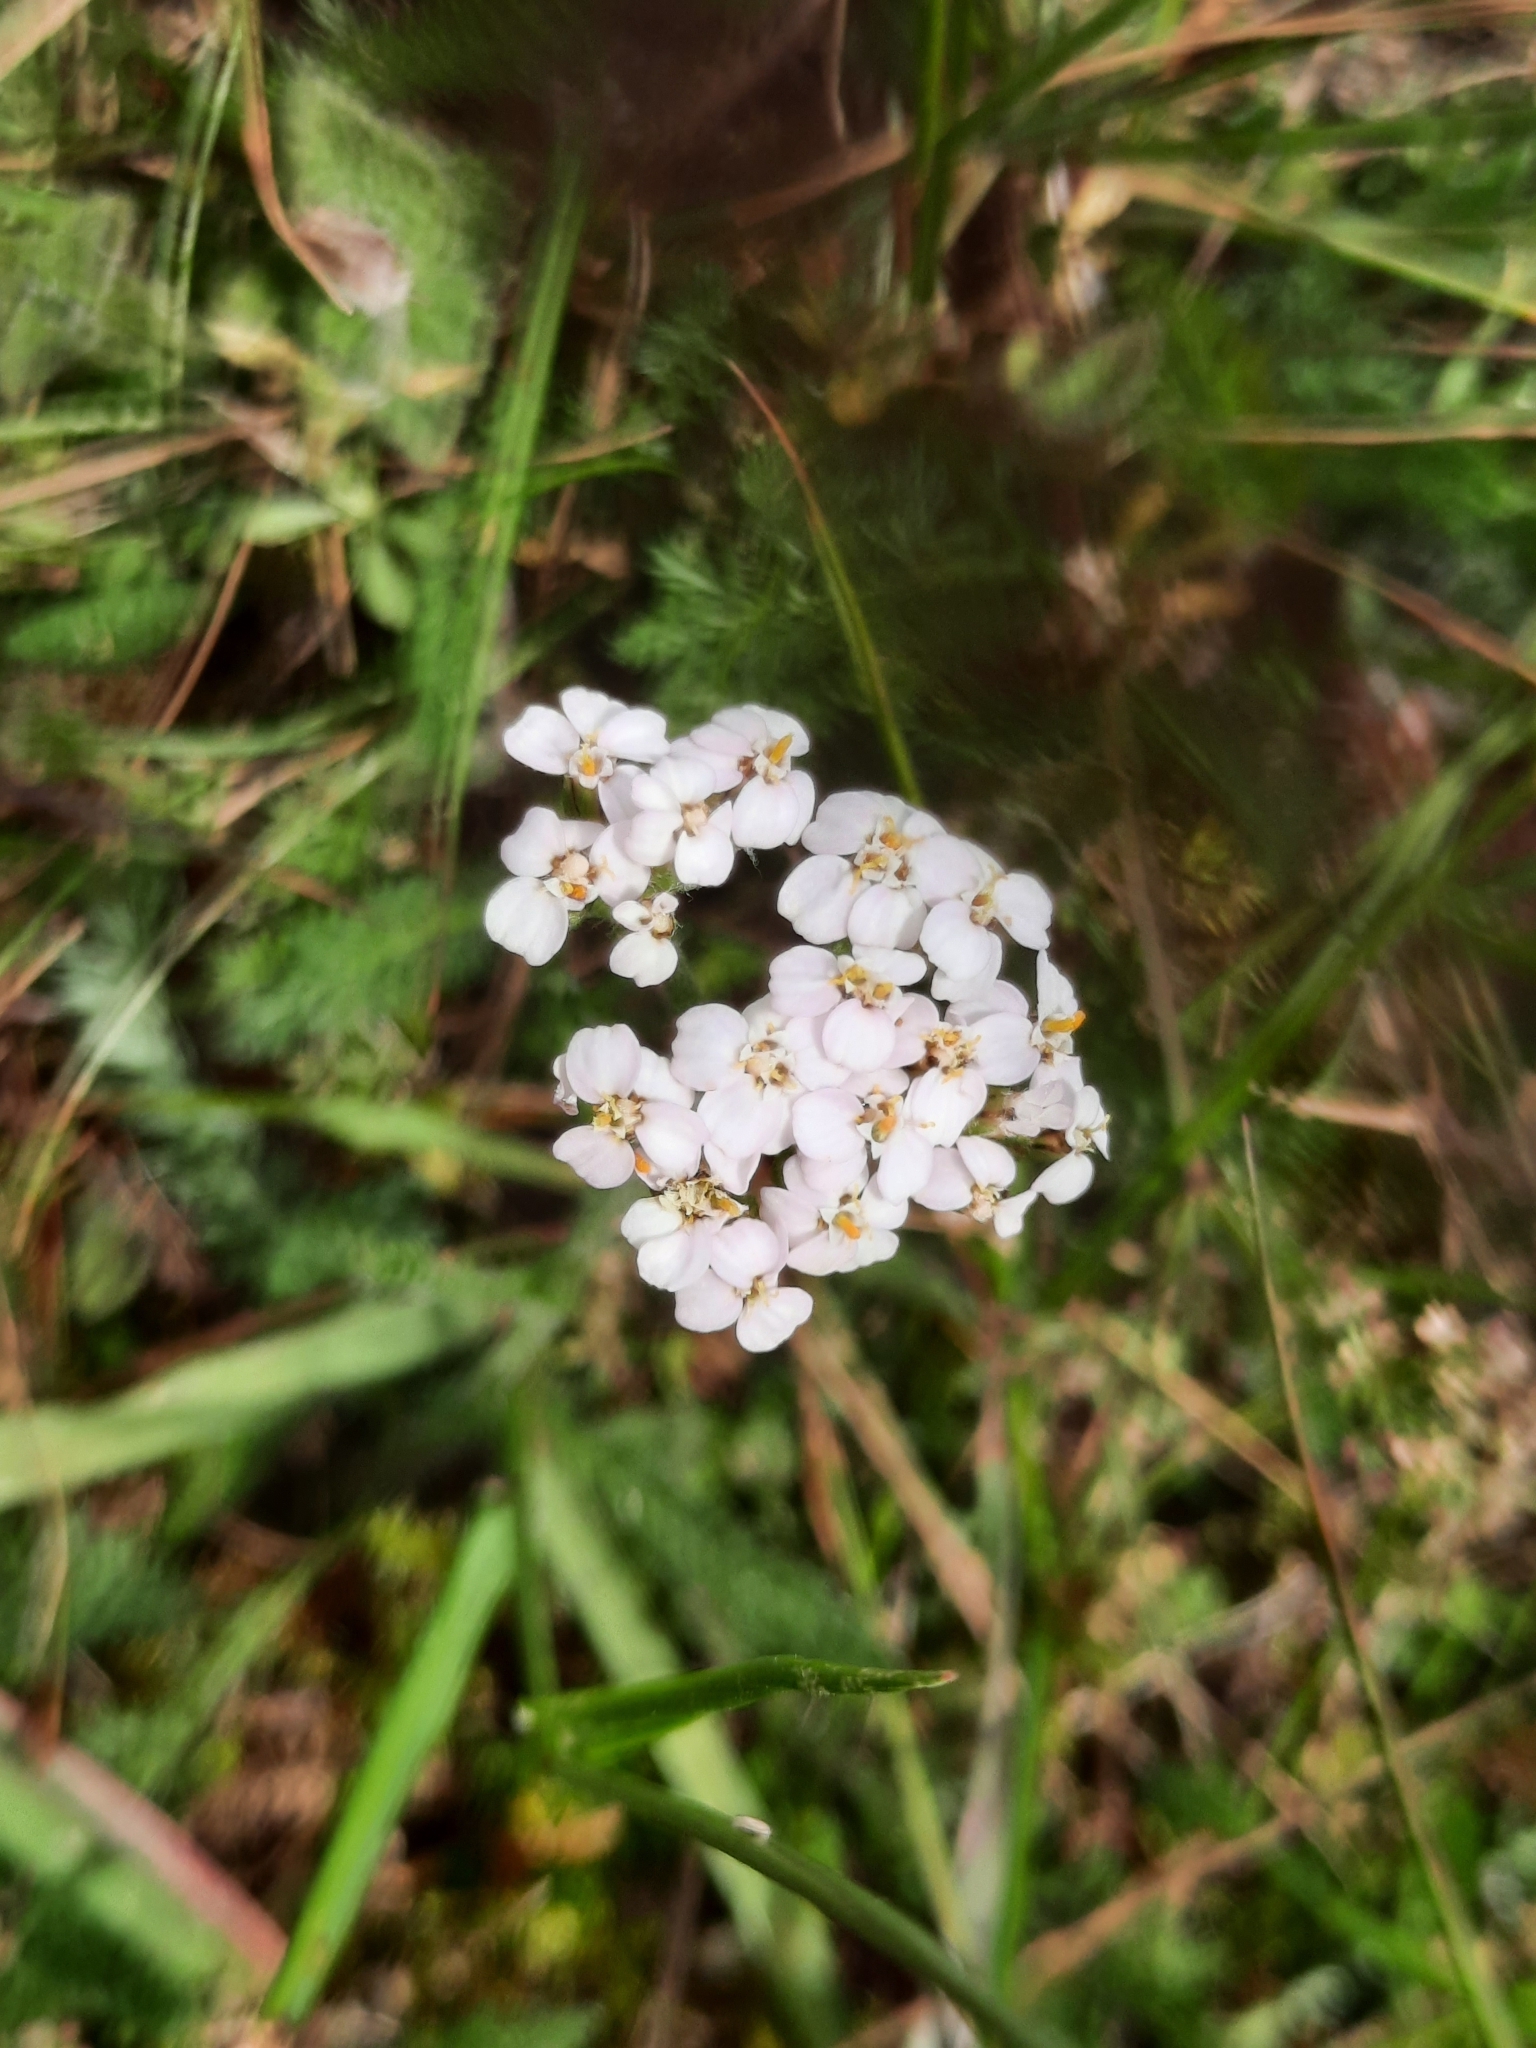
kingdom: Plantae
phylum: Tracheophyta
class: Magnoliopsida
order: Asterales
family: Asteraceae
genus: Achillea
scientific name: Achillea millefolium
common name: Yarrow
